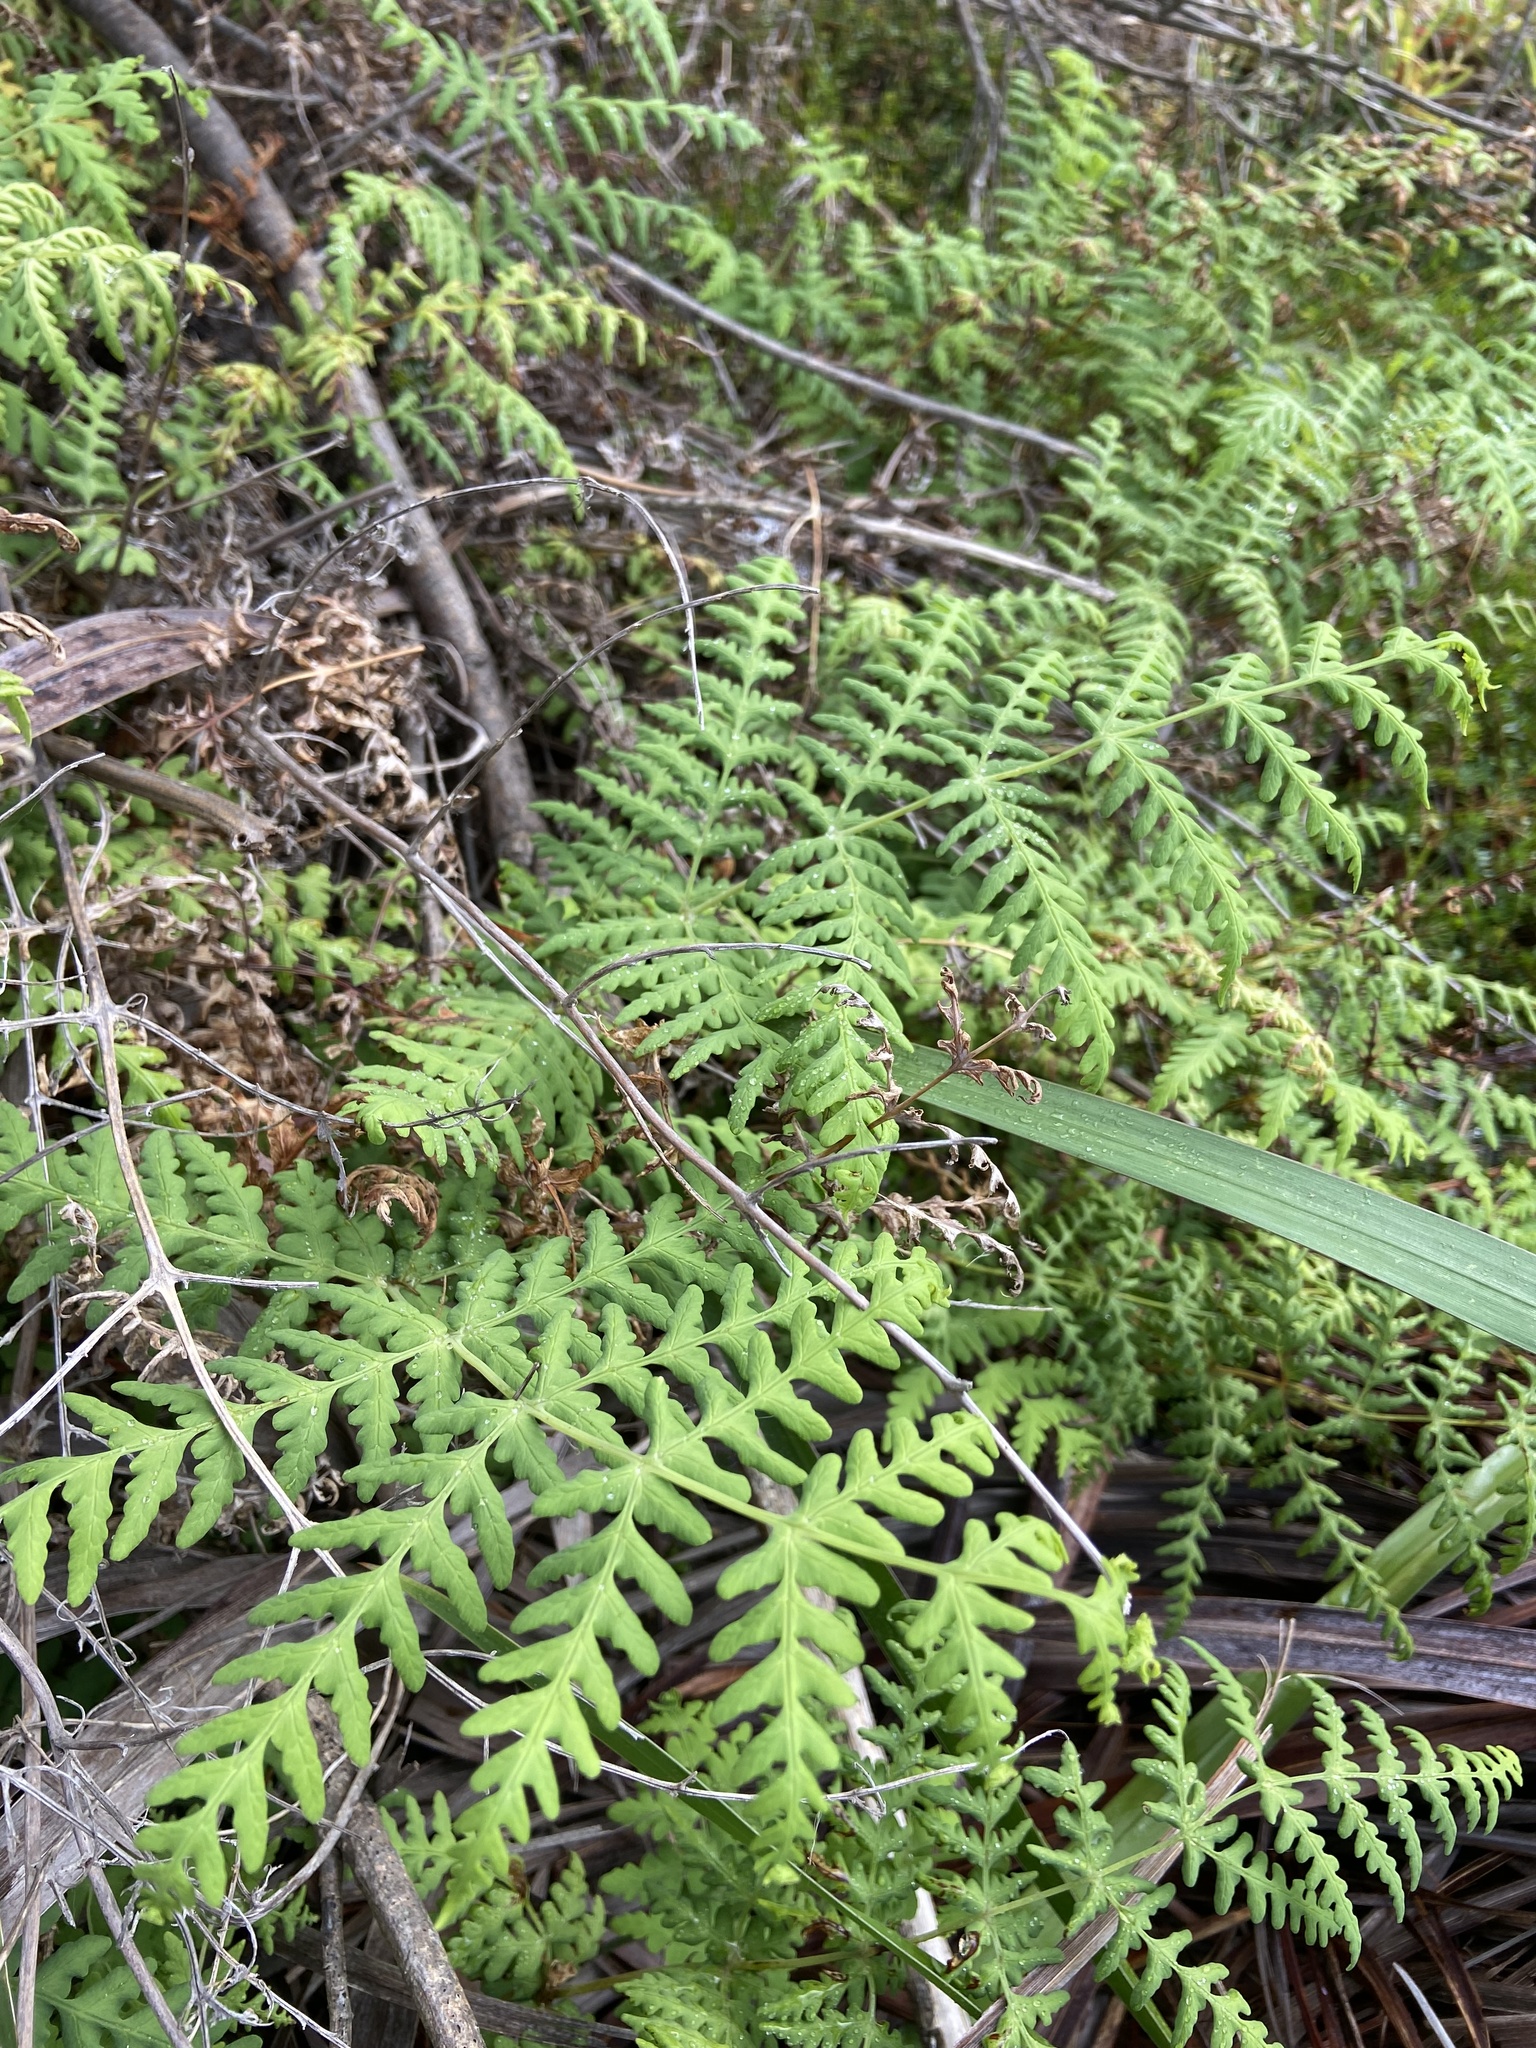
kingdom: Plantae
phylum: Tracheophyta
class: Polypodiopsida
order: Polypodiales
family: Dennstaedtiaceae
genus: Histiopteris
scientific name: Histiopteris incisa
